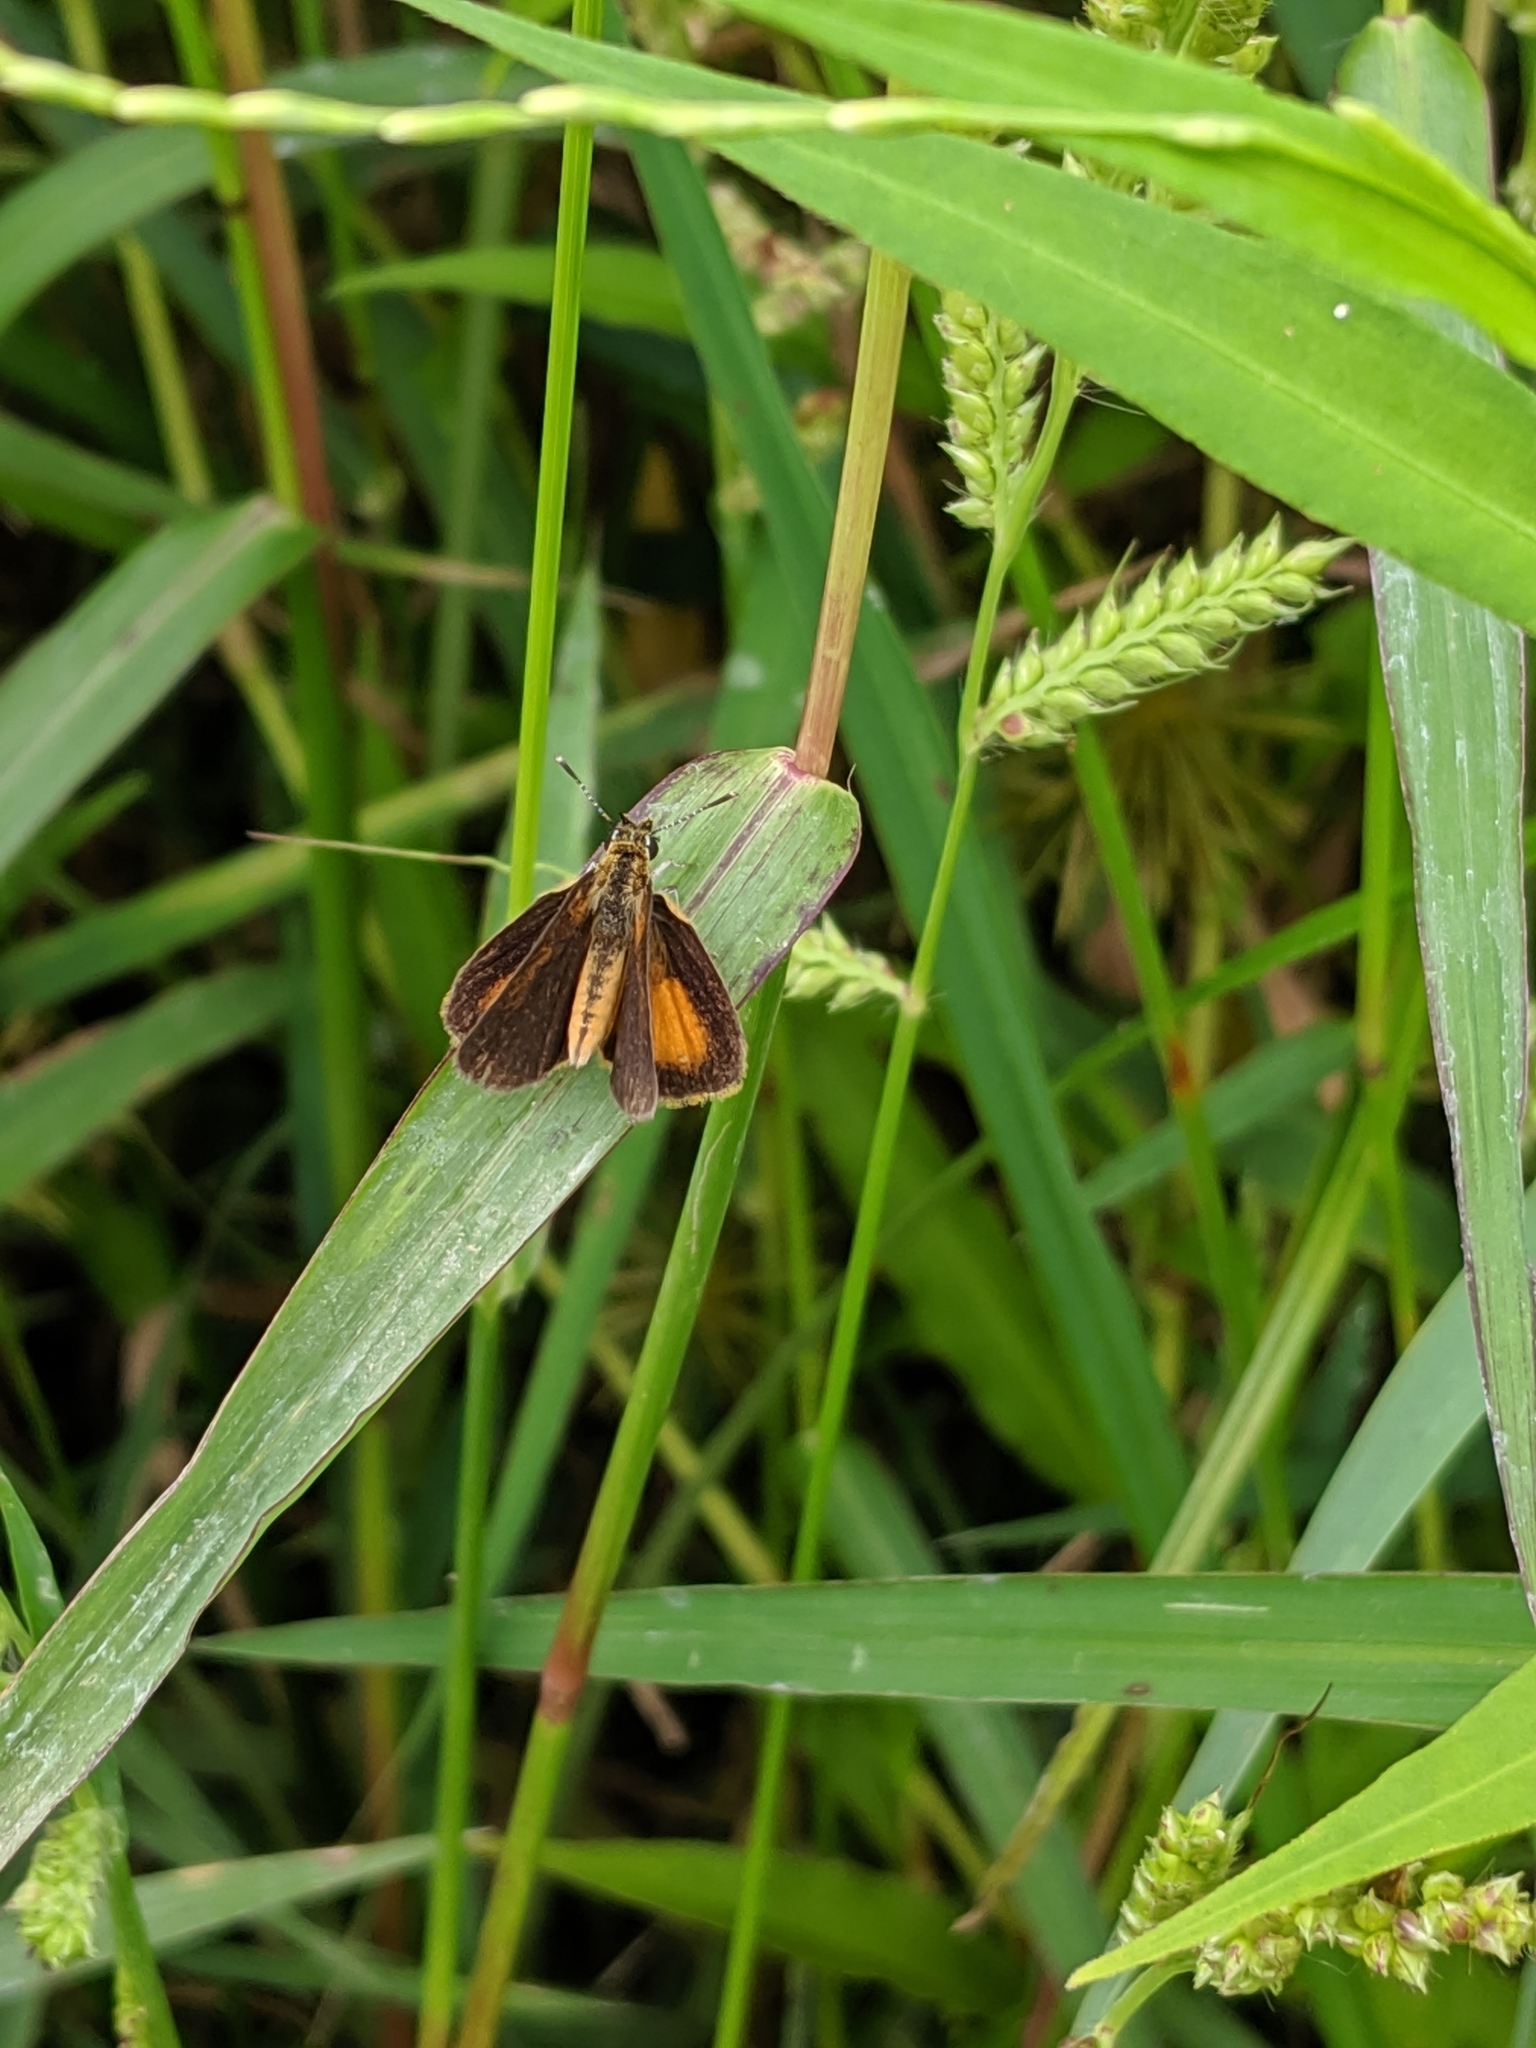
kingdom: Animalia
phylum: Arthropoda
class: Insecta
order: Lepidoptera
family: Hesperiidae
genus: Ancyloxypha
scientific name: Ancyloxypha numitor
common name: Least skipper
